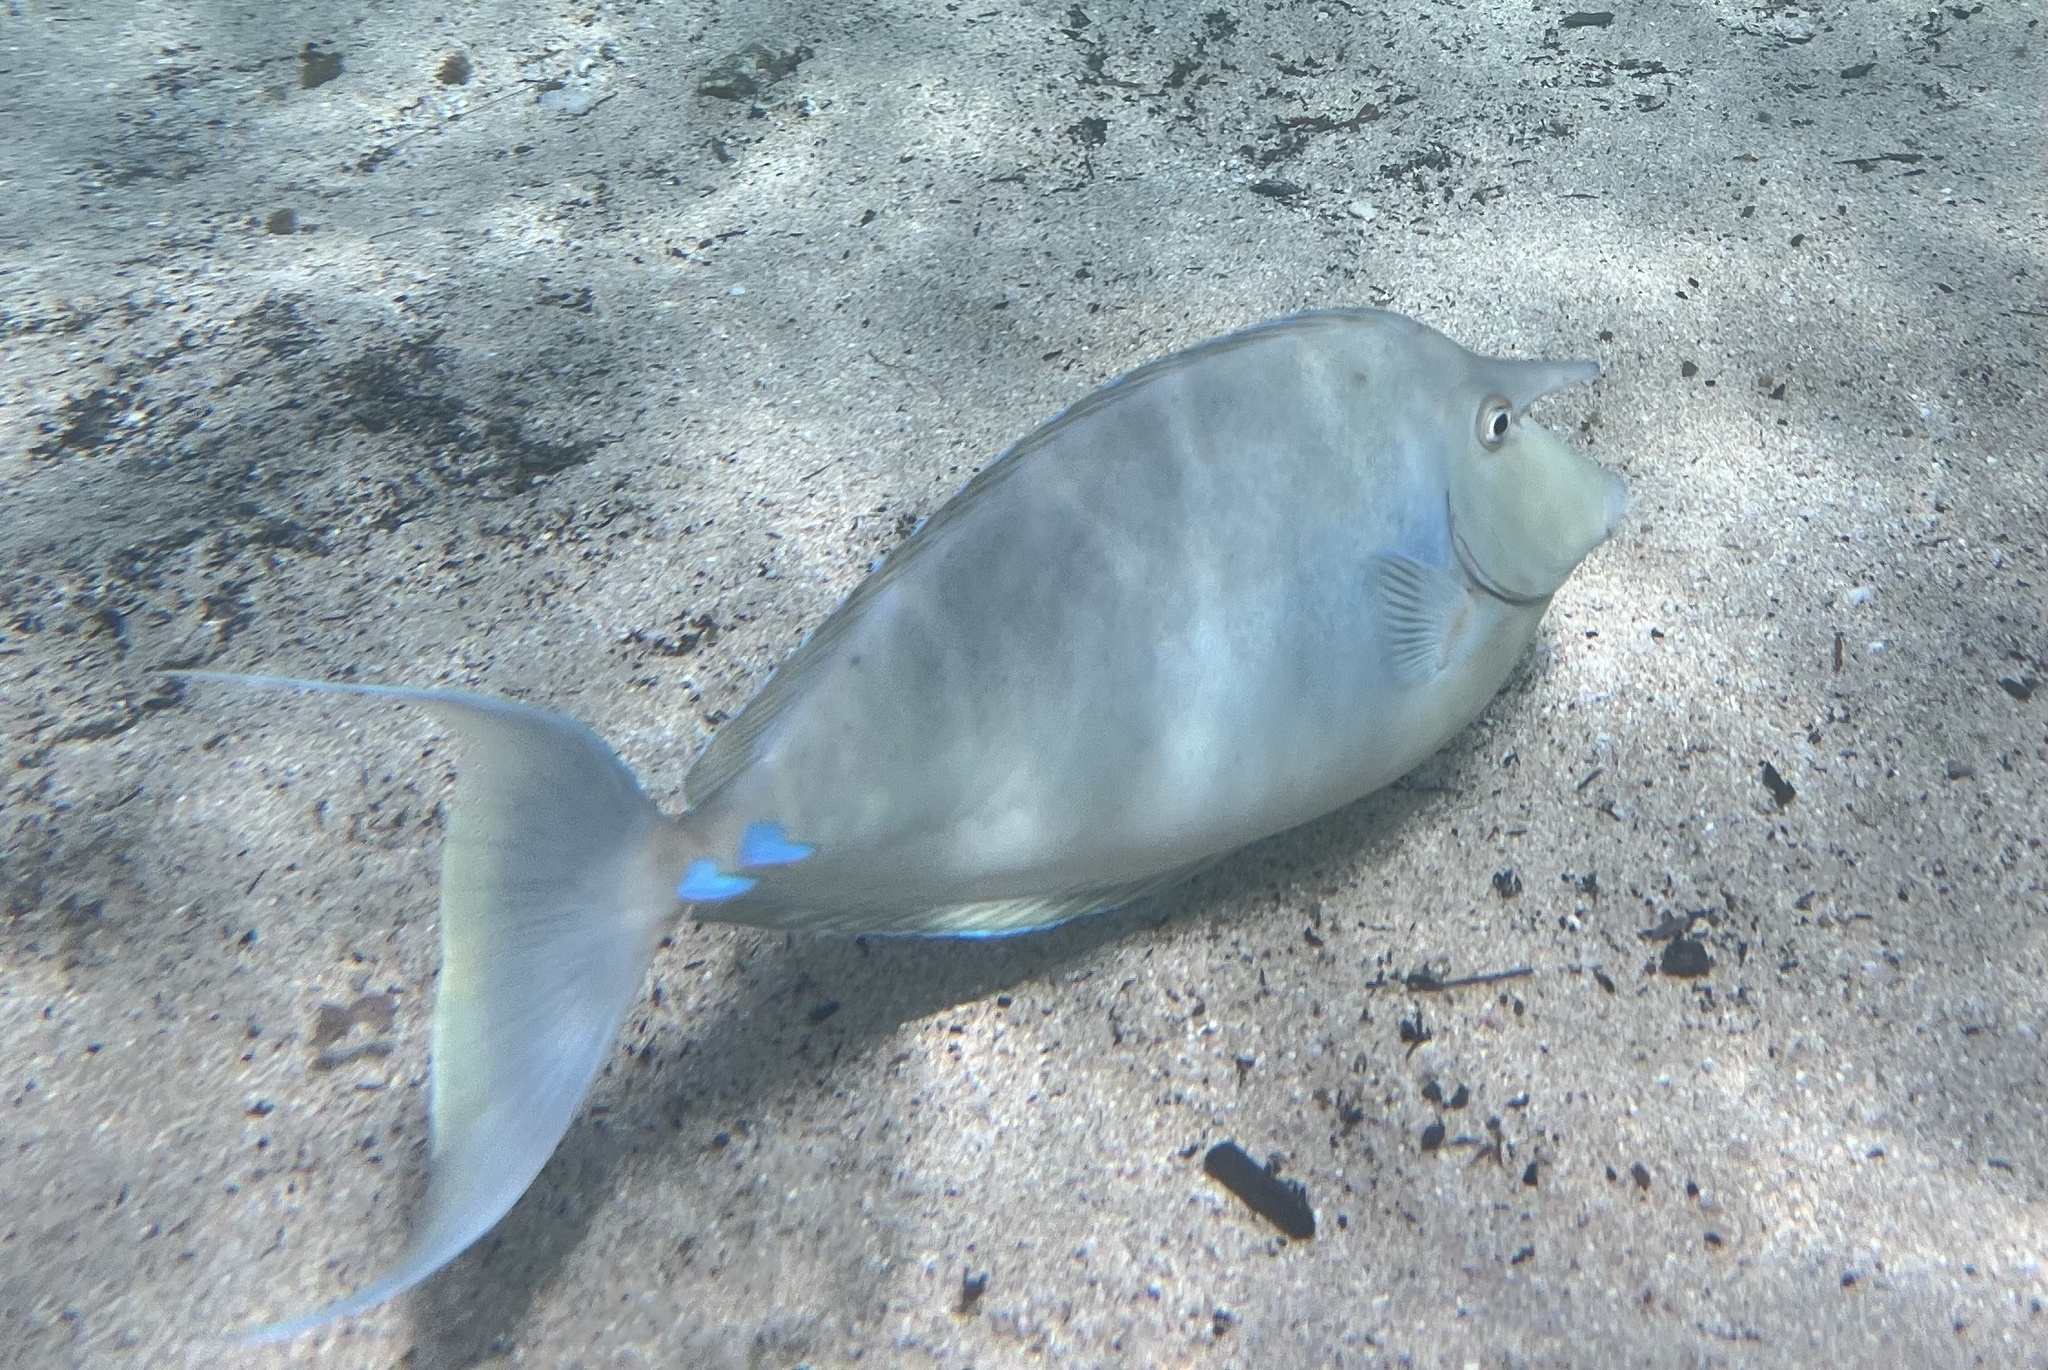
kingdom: Animalia
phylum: Chordata
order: Perciformes
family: Acanthuridae
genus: Naso
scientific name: Naso unicornis
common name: Bluespine unicornfish
